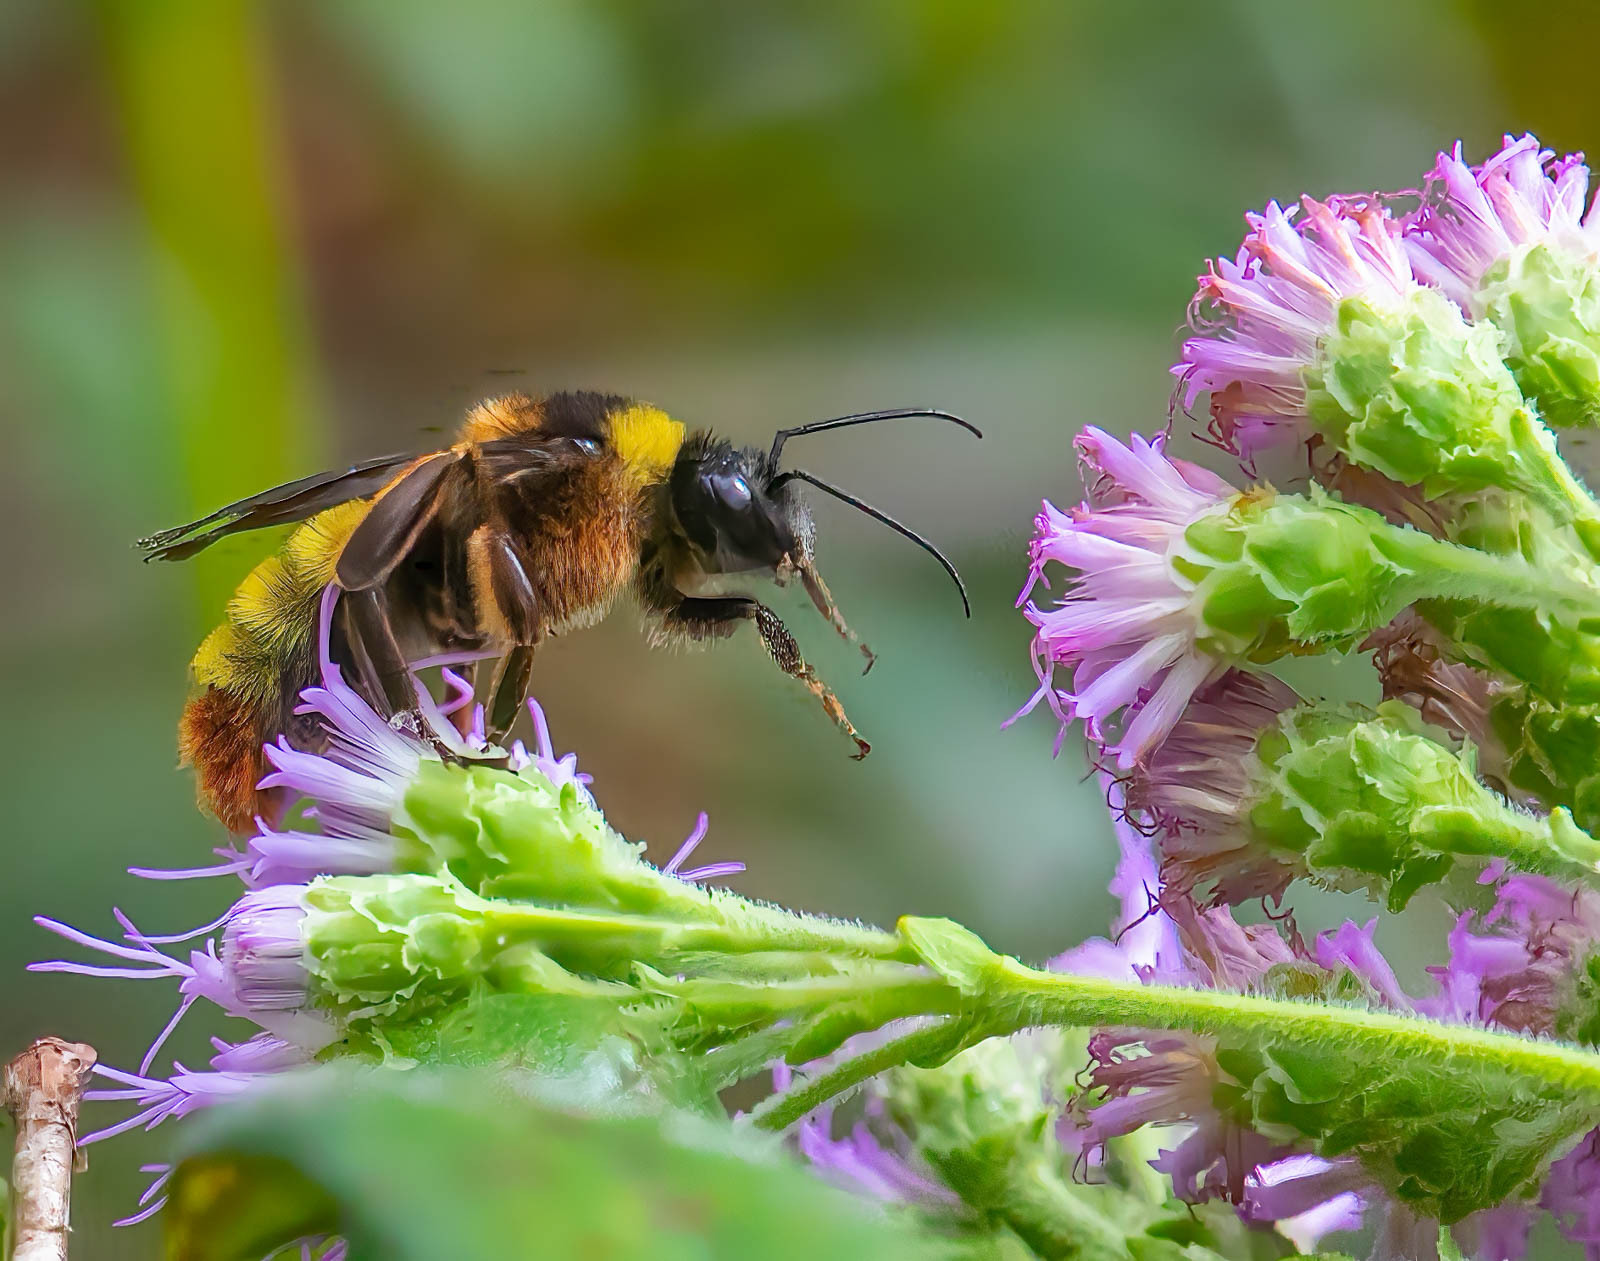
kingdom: Animalia
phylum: Arthropoda
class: Insecta
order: Hymenoptera
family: Apidae
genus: Bombus
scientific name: Bombus pensylvanicus
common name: Bumble bee
